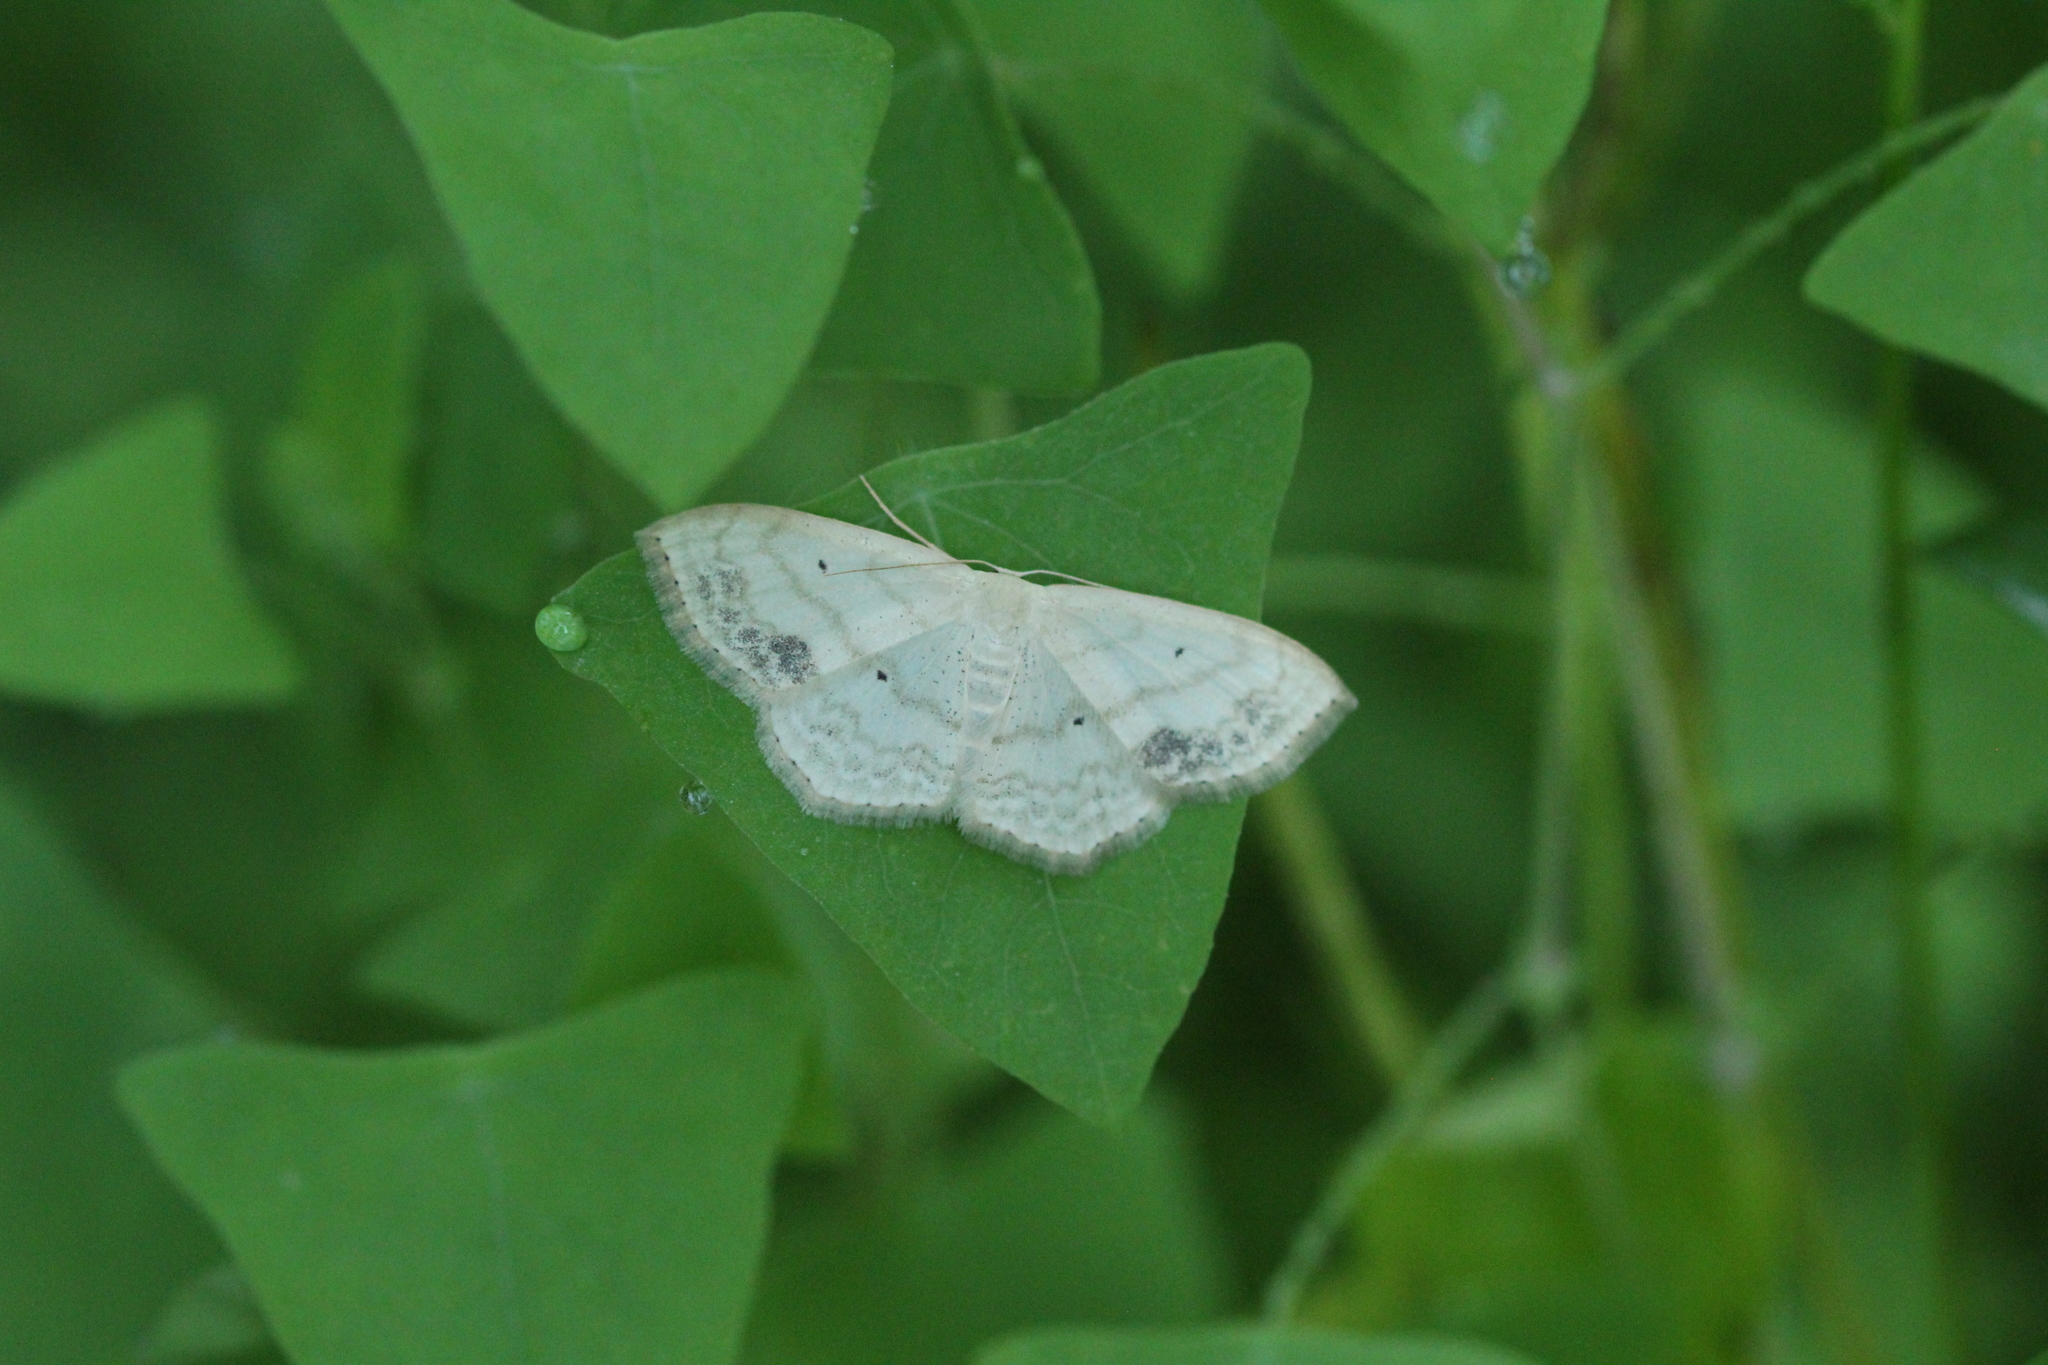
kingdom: Animalia
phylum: Arthropoda
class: Insecta
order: Lepidoptera
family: Geometridae
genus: Scopula
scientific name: Scopula limboundata
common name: Large lace border
